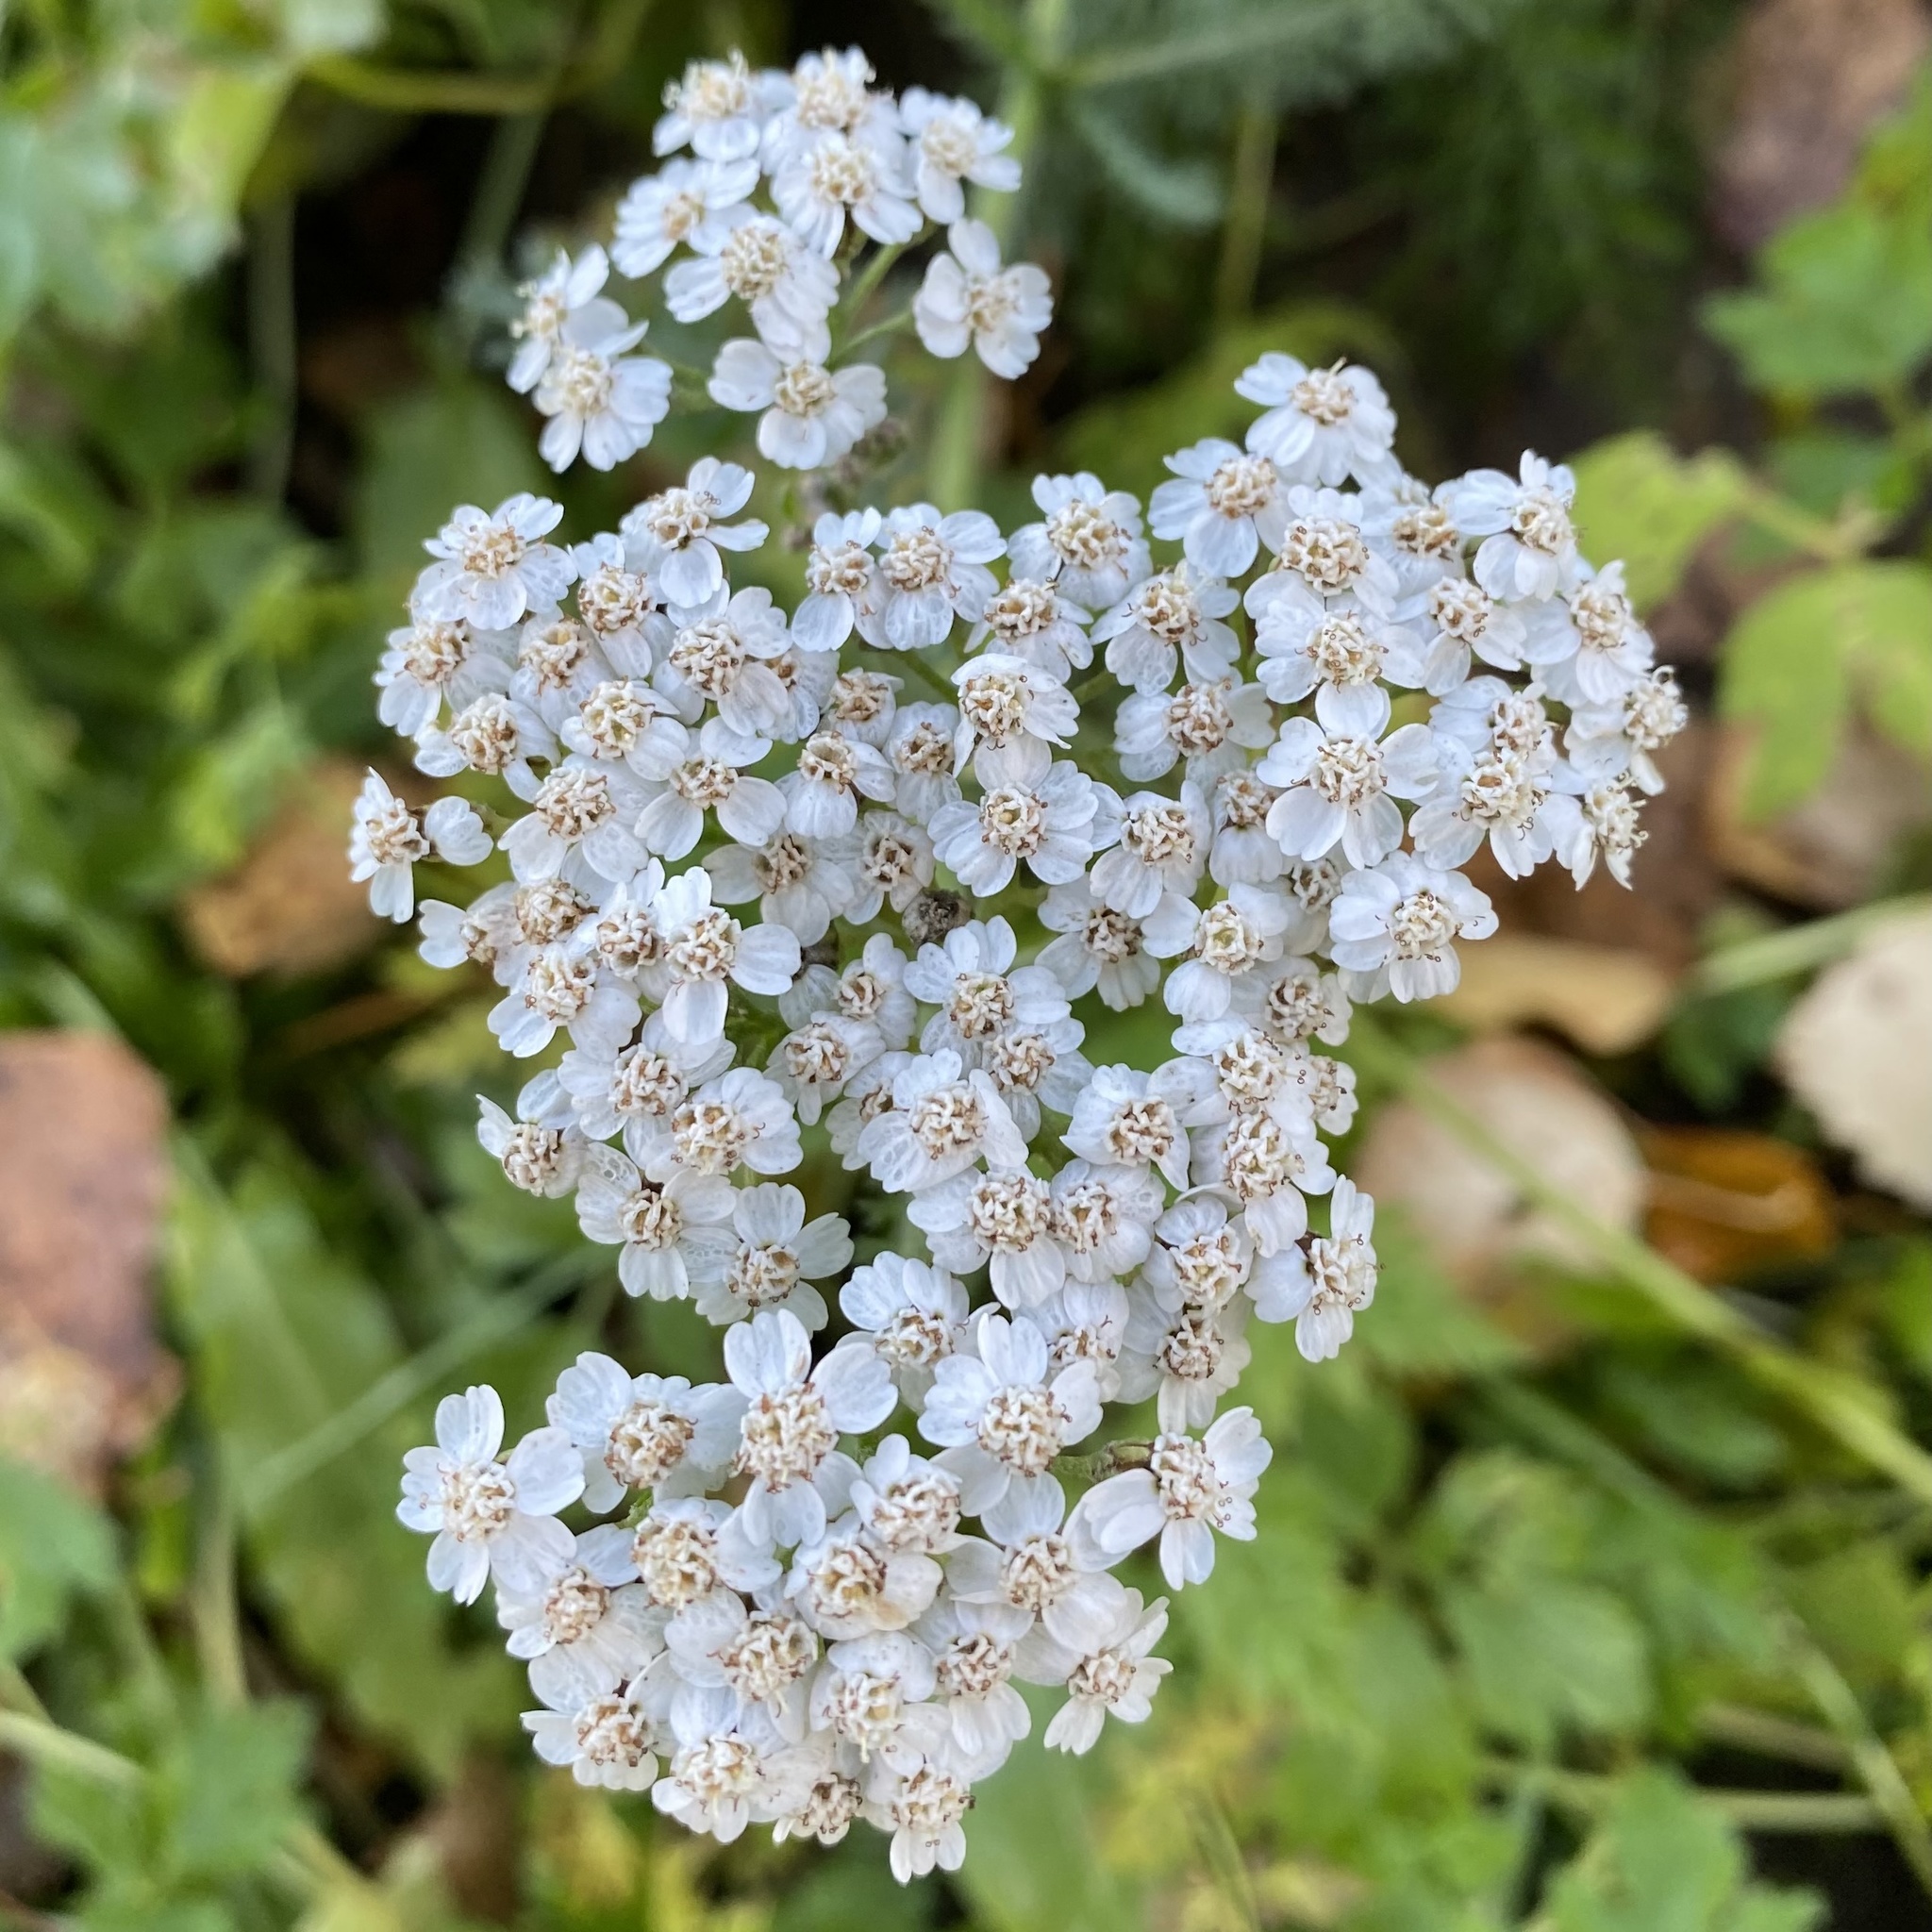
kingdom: Plantae
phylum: Tracheophyta
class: Magnoliopsida
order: Asterales
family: Asteraceae
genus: Achillea
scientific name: Achillea millefolium
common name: Yarrow
